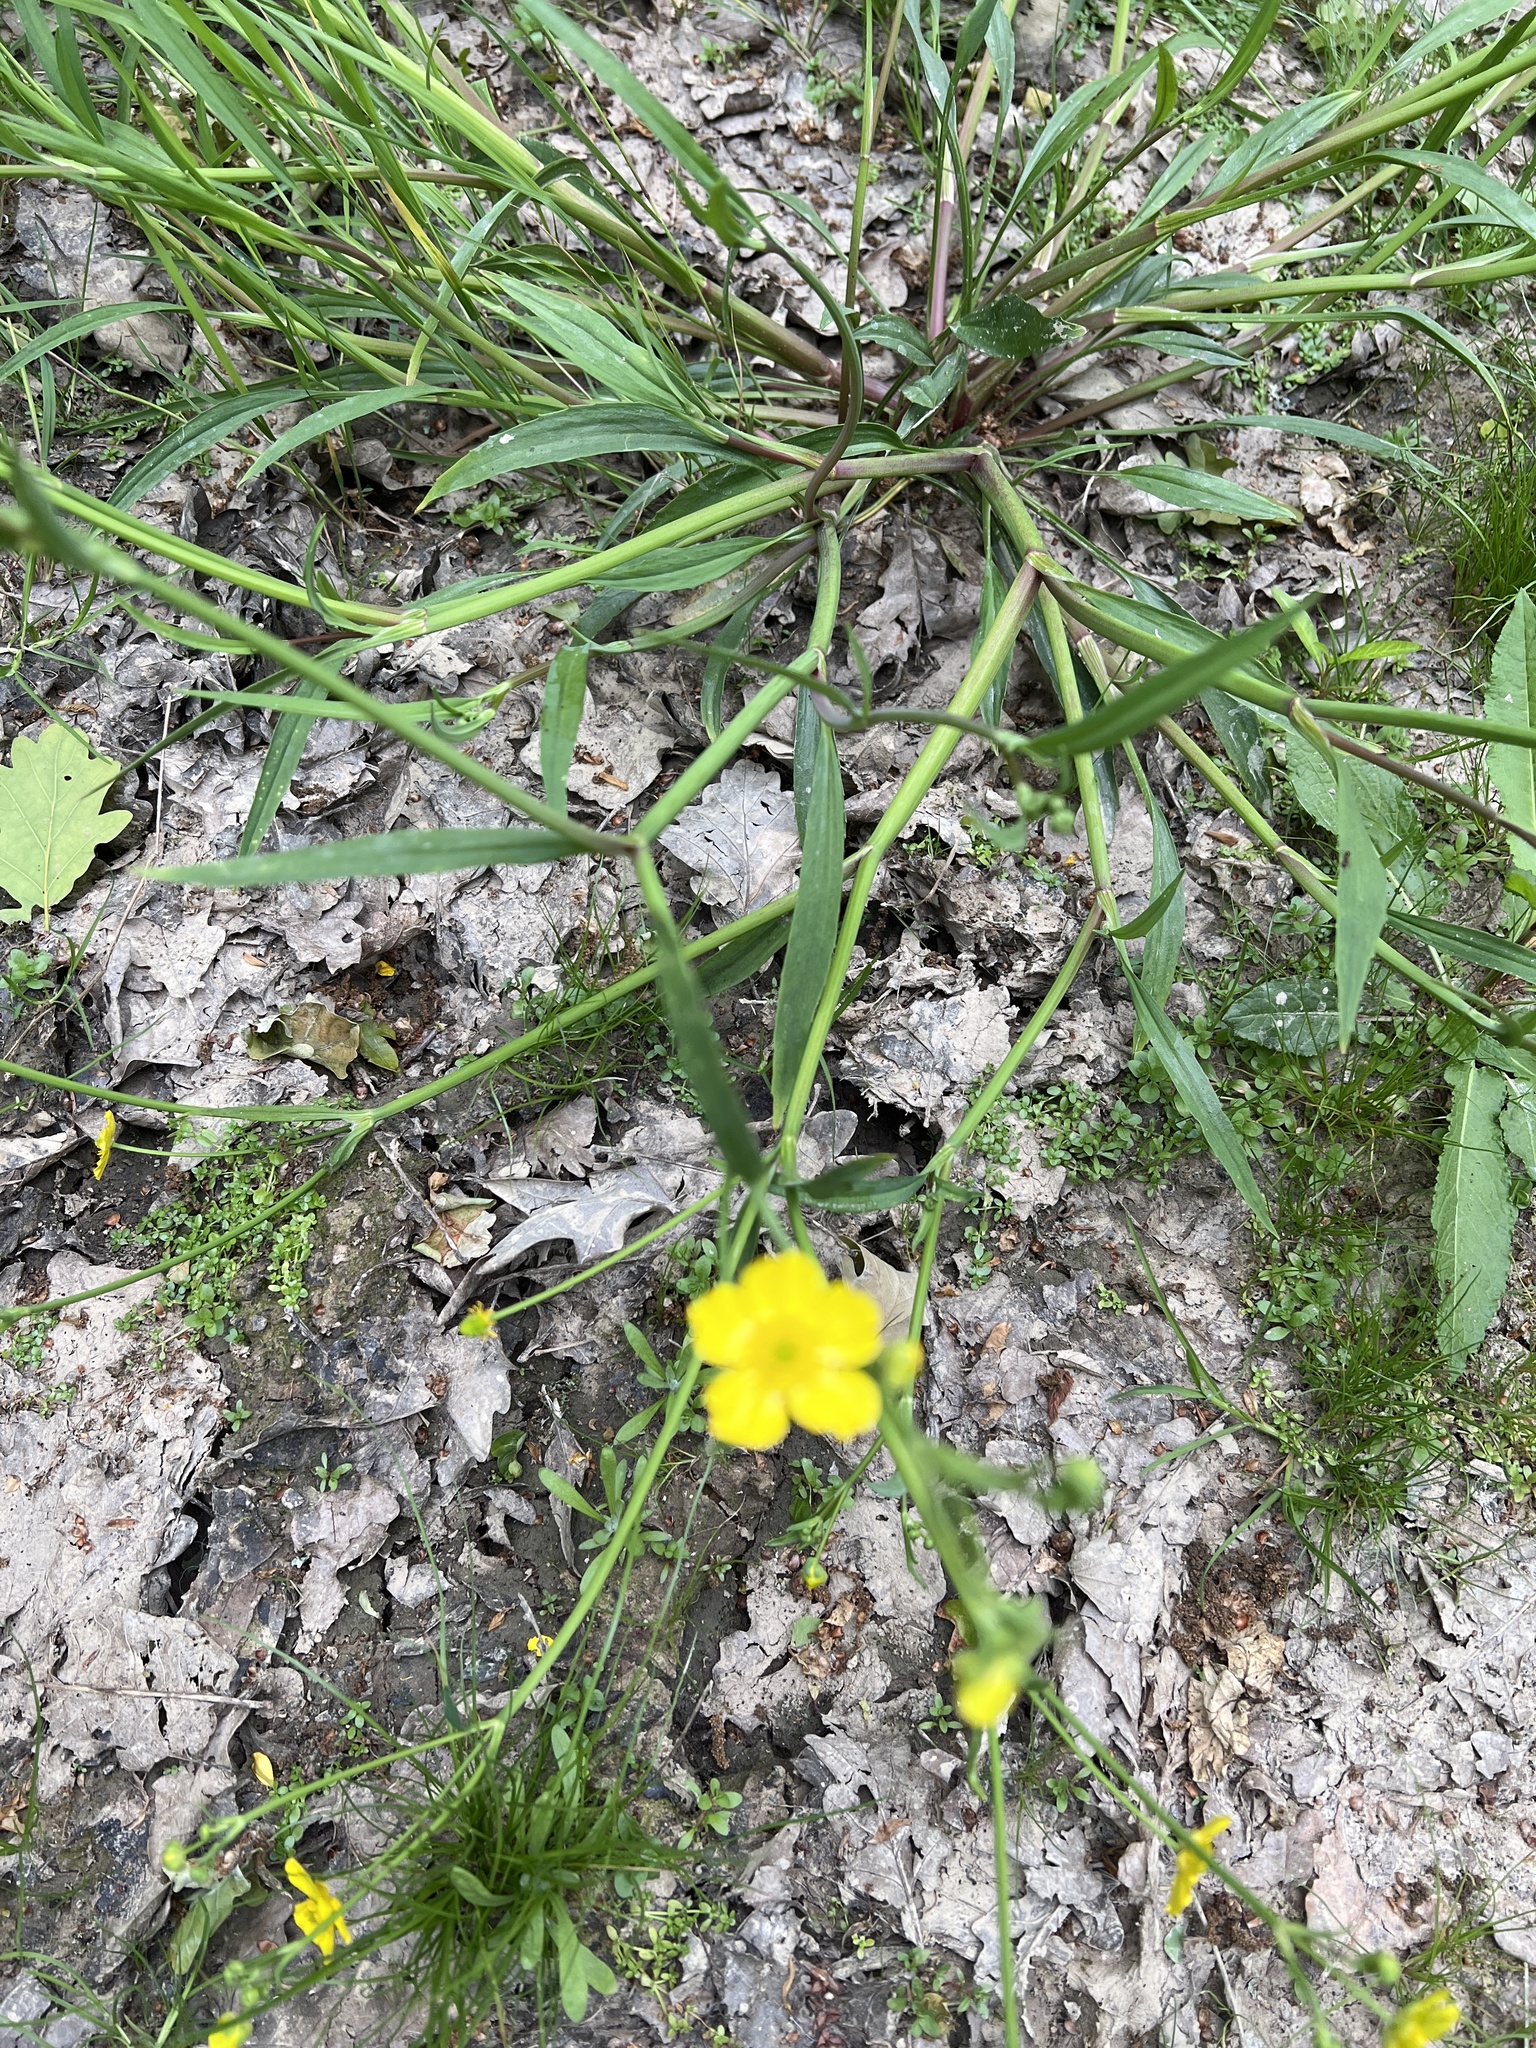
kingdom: Plantae
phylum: Tracheophyta
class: Magnoliopsida
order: Ranunculales
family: Ranunculaceae
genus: Ranunculus
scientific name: Ranunculus flammula
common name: Lesser spearwort
